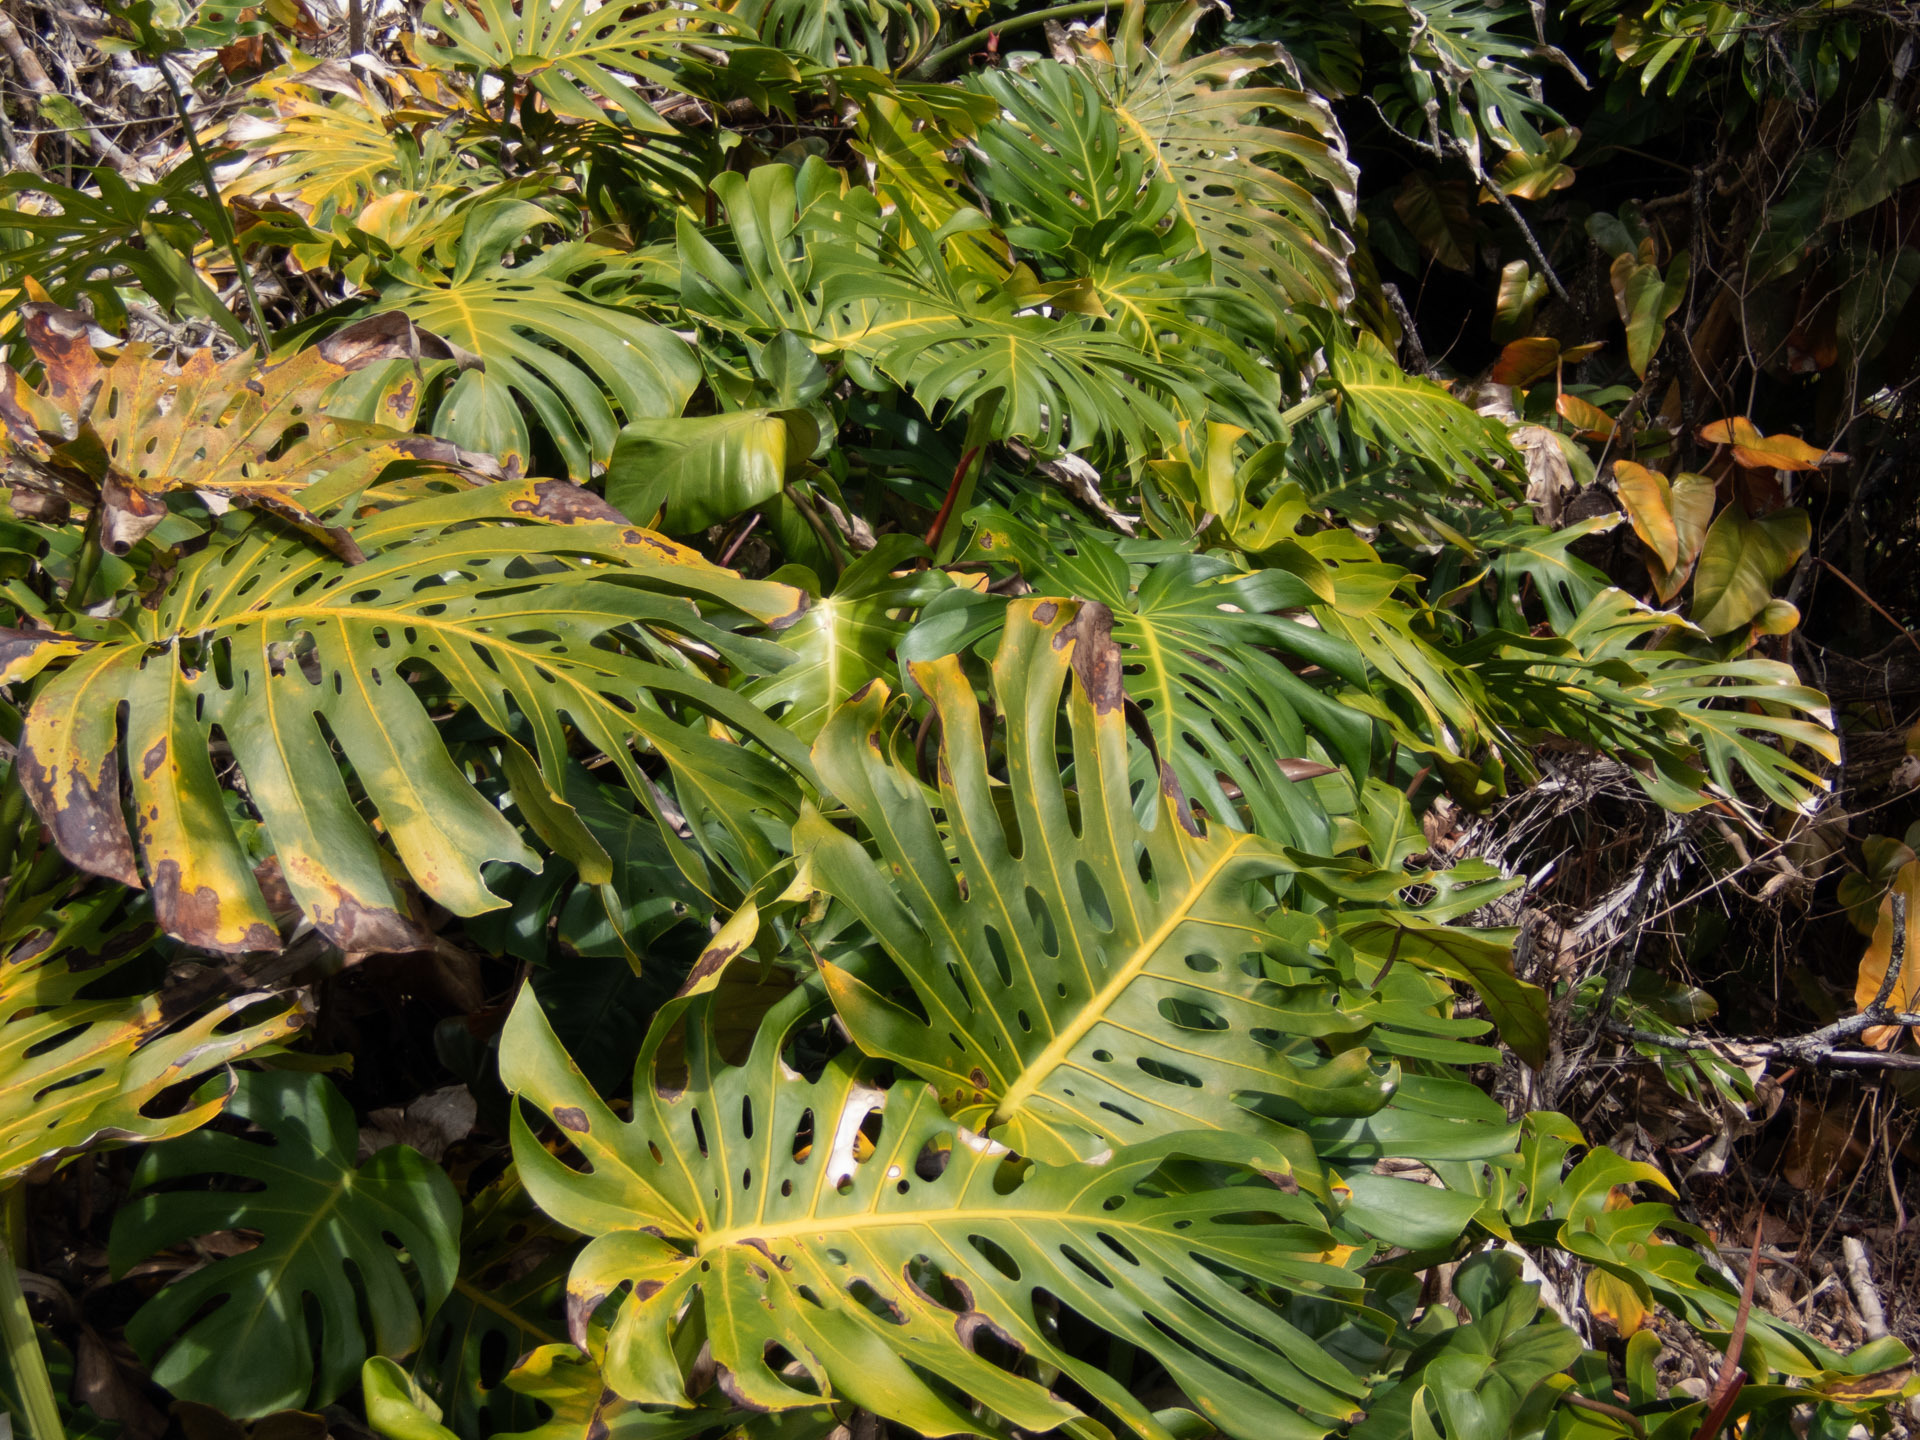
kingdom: Plantae
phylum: Tracheophyta
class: Liliopsida
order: Alismatales
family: Araceae
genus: Monstera
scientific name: Monstera deliciosa
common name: Cut-leaf-philodendron
